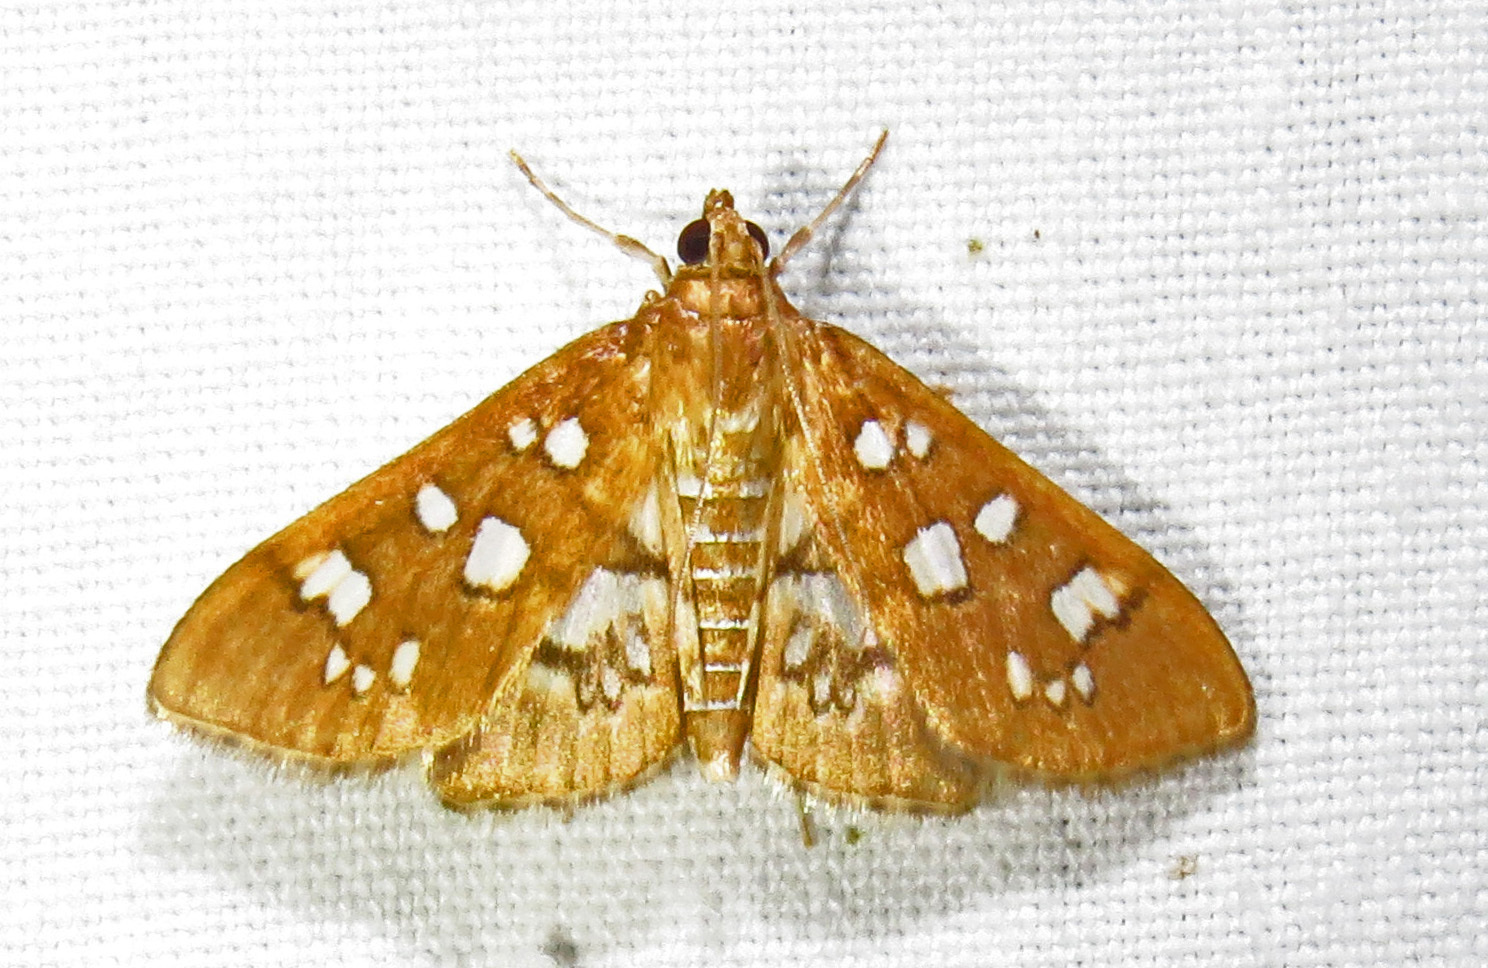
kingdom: Animalia
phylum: Arthropoda
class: Insecta
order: Lepidoptera
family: Crambidae
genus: Samea
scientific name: Samea baccatalis
